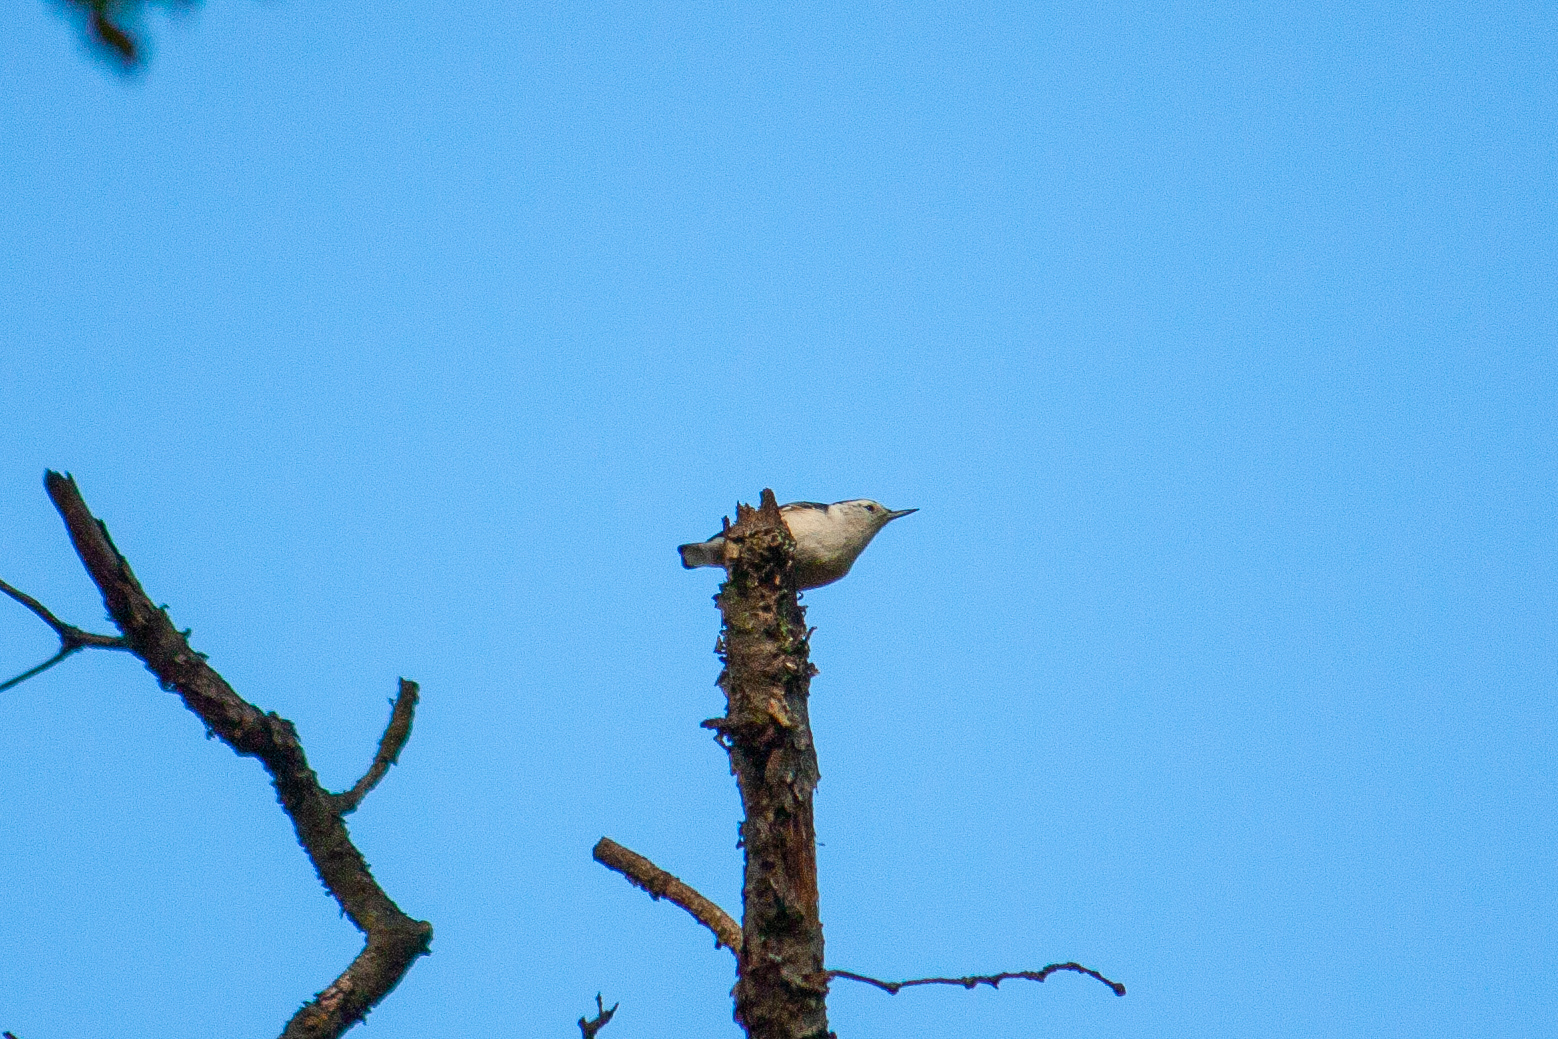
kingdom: Animalia
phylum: Chordata
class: Aves
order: Passeriformes
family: Sittidae
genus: Sitta
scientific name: Sitta carolinensis
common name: White-breasted nuthatch
